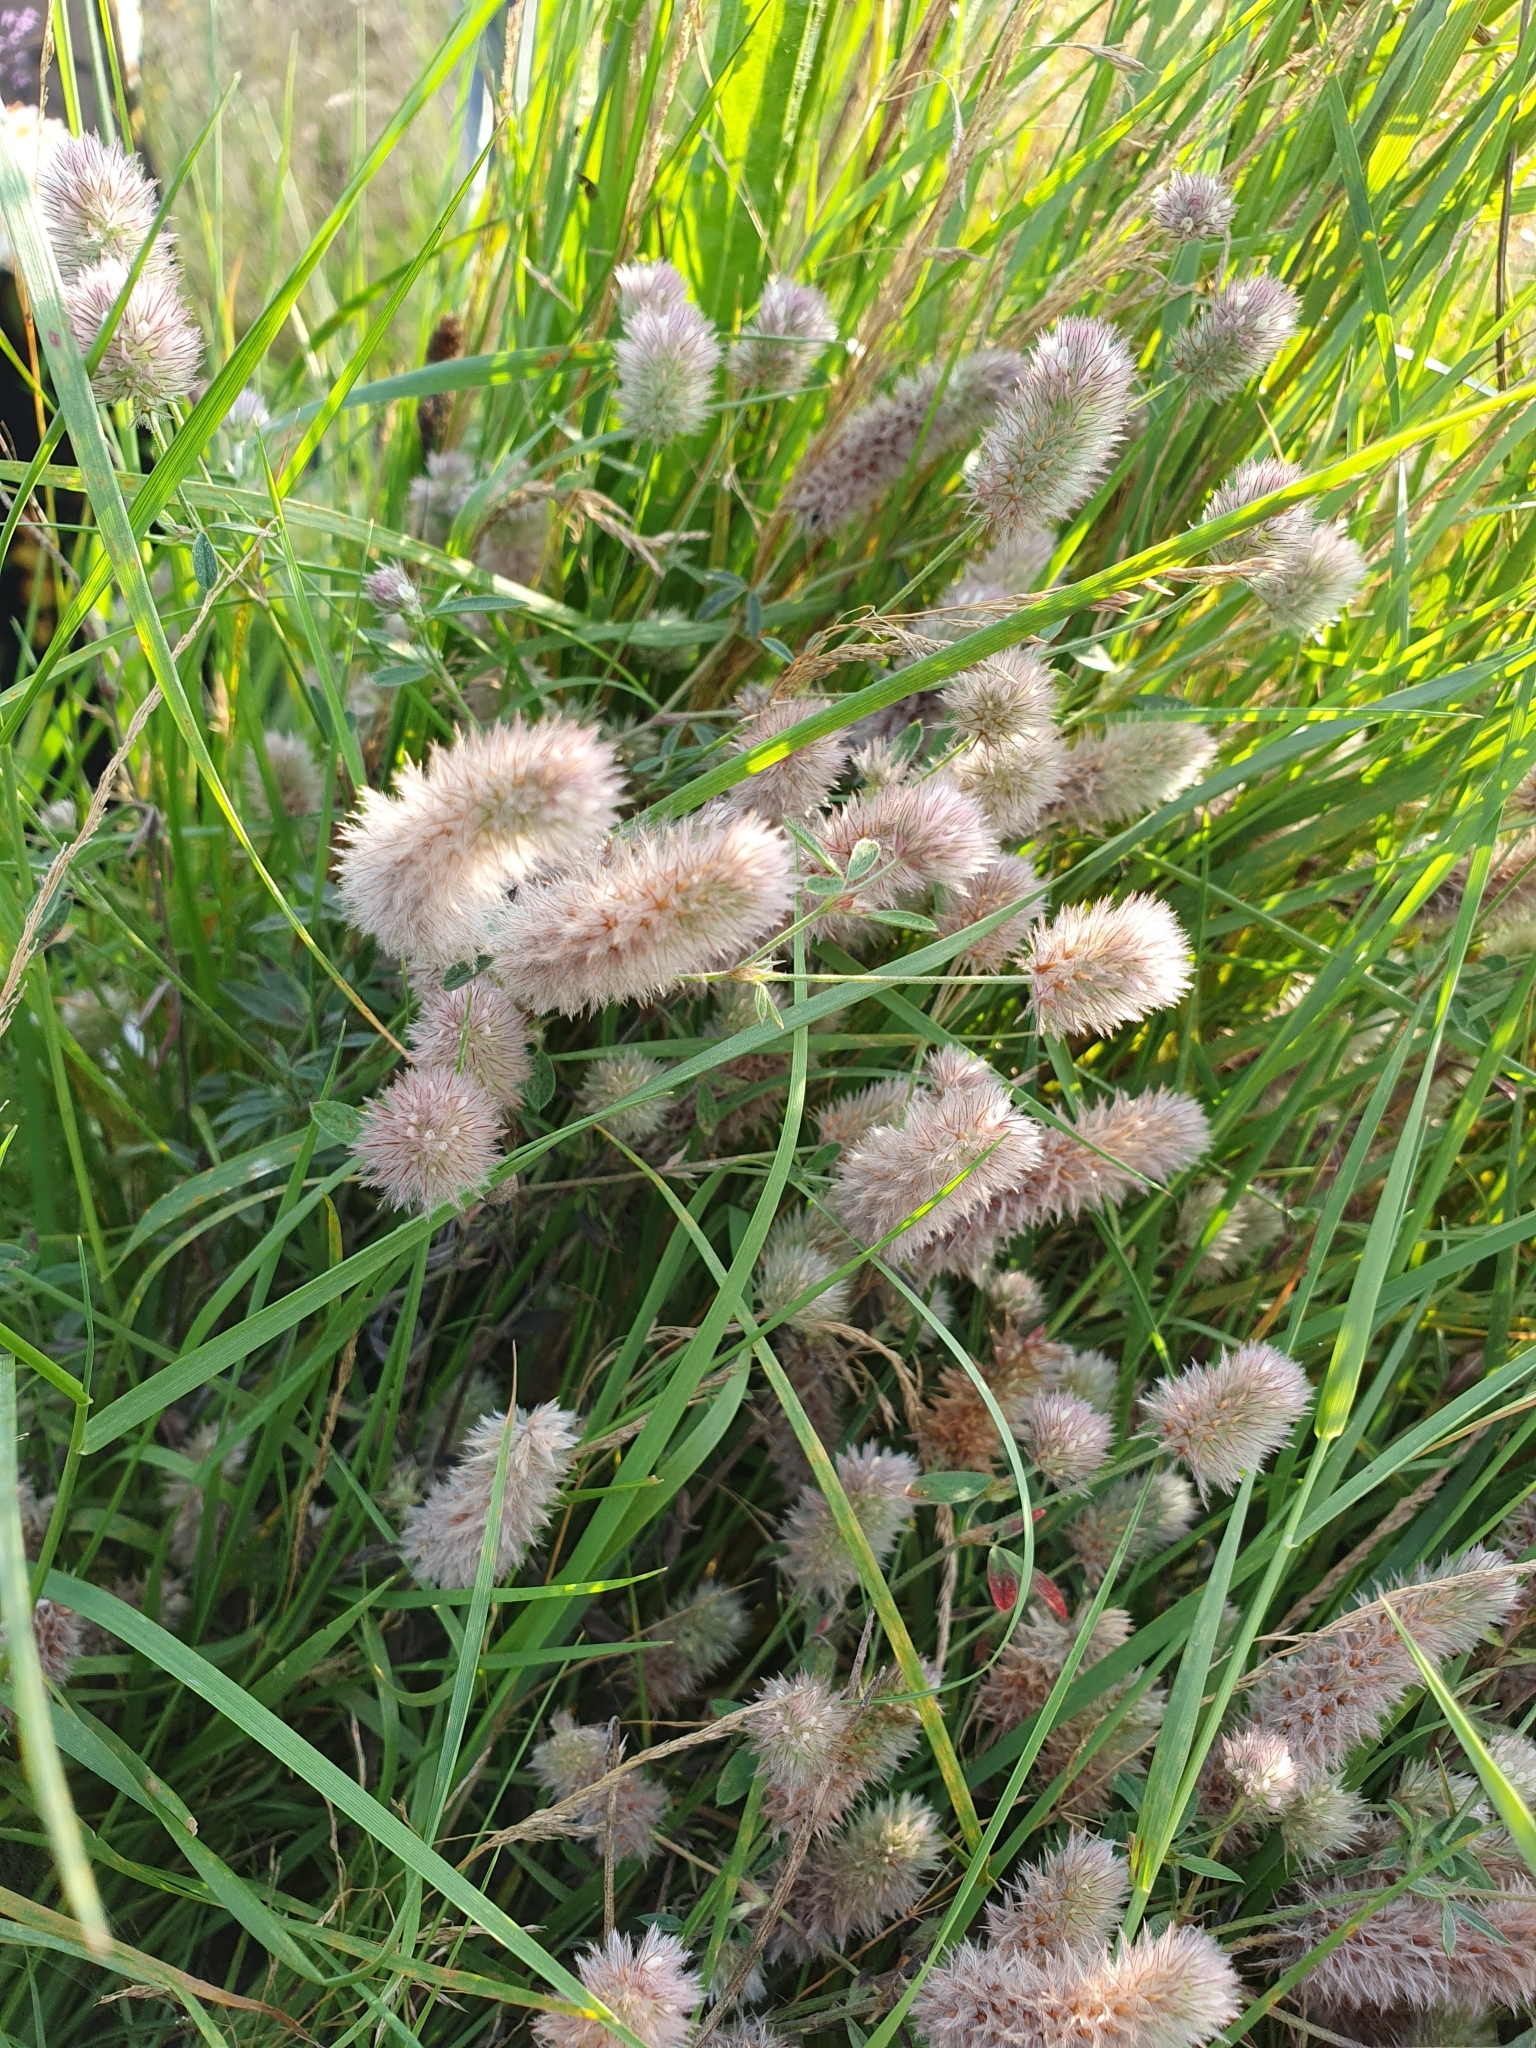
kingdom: Plantae
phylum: Tracheophyta
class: Magnoliopsida
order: Fabales
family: Fabaceae
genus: Trifolium
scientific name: Trifolium arvense
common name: Hare's-foot clover
